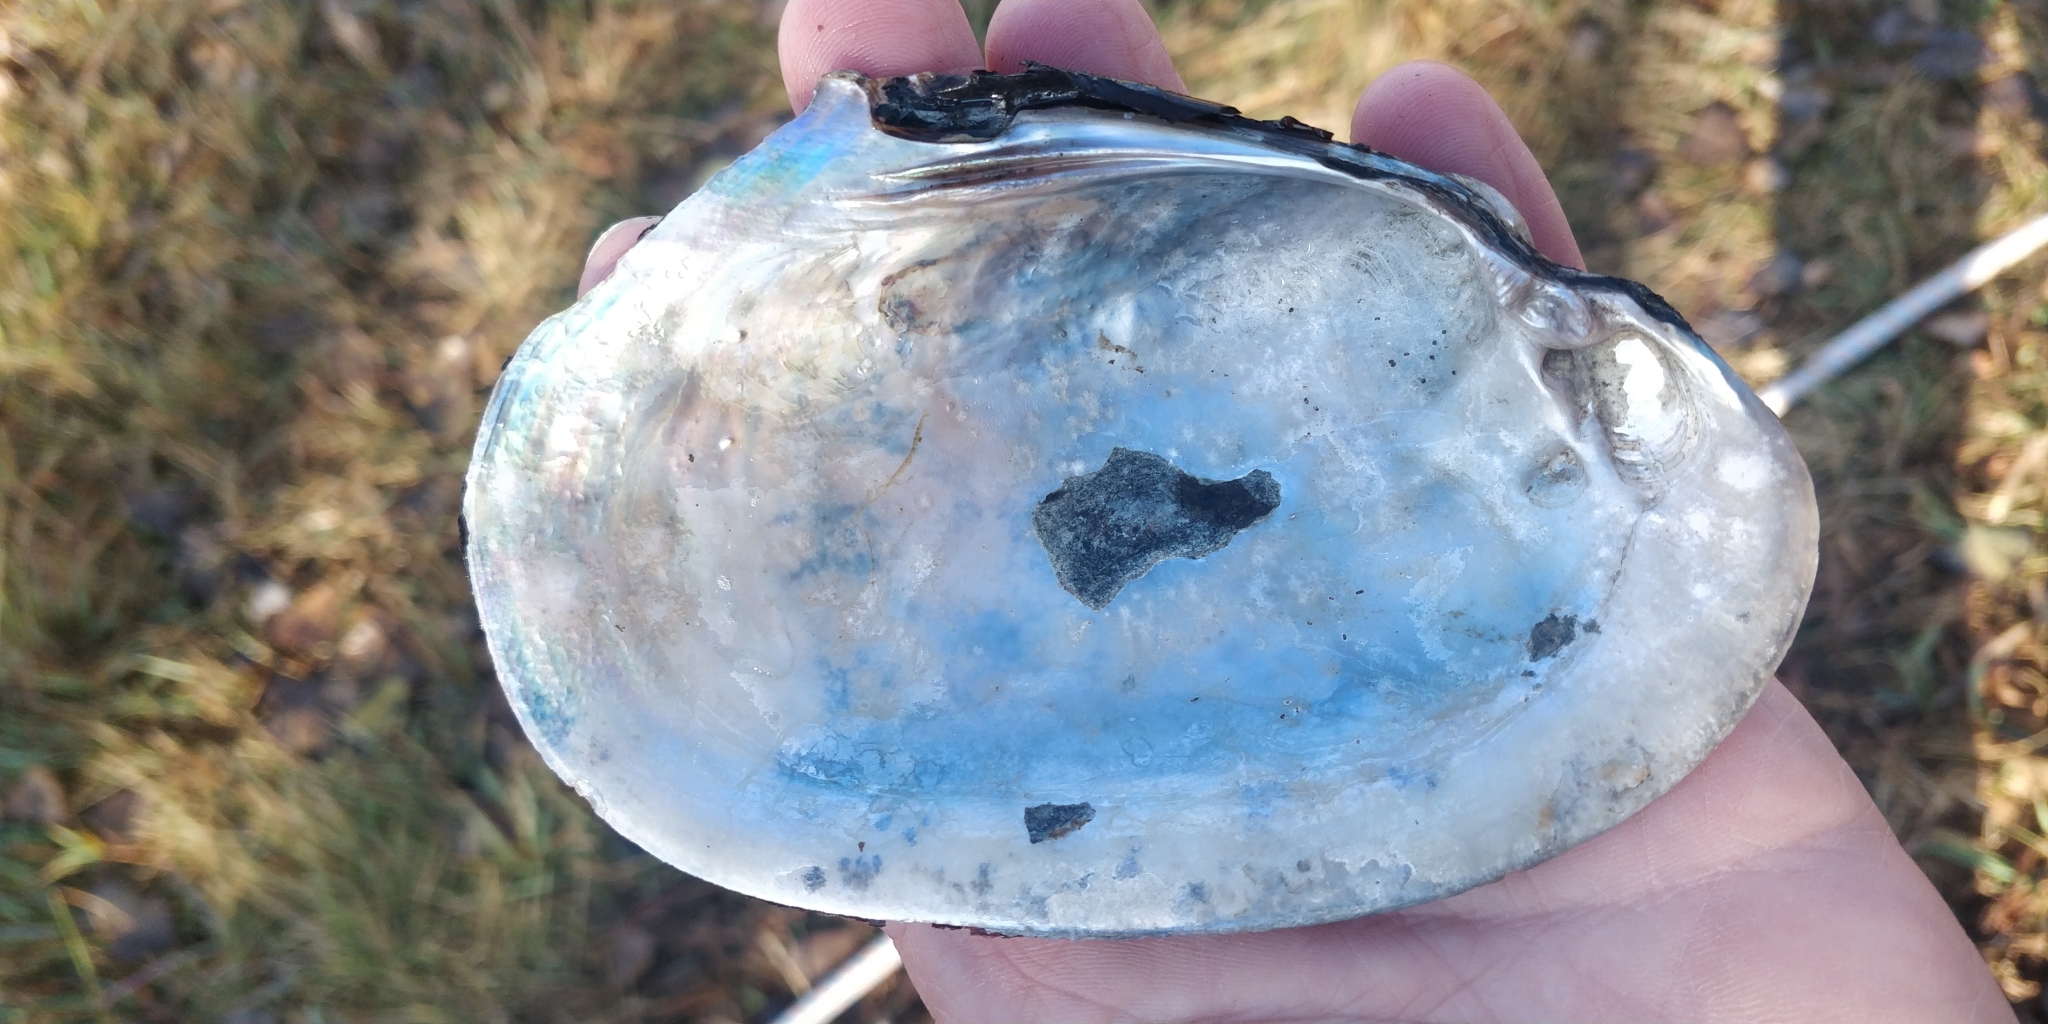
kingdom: Animalia
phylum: Mollusca
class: Bivalvia
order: Unionida
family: Unionidae
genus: Potamilus
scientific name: Potamilus alatus
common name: Pink heelsplitter
